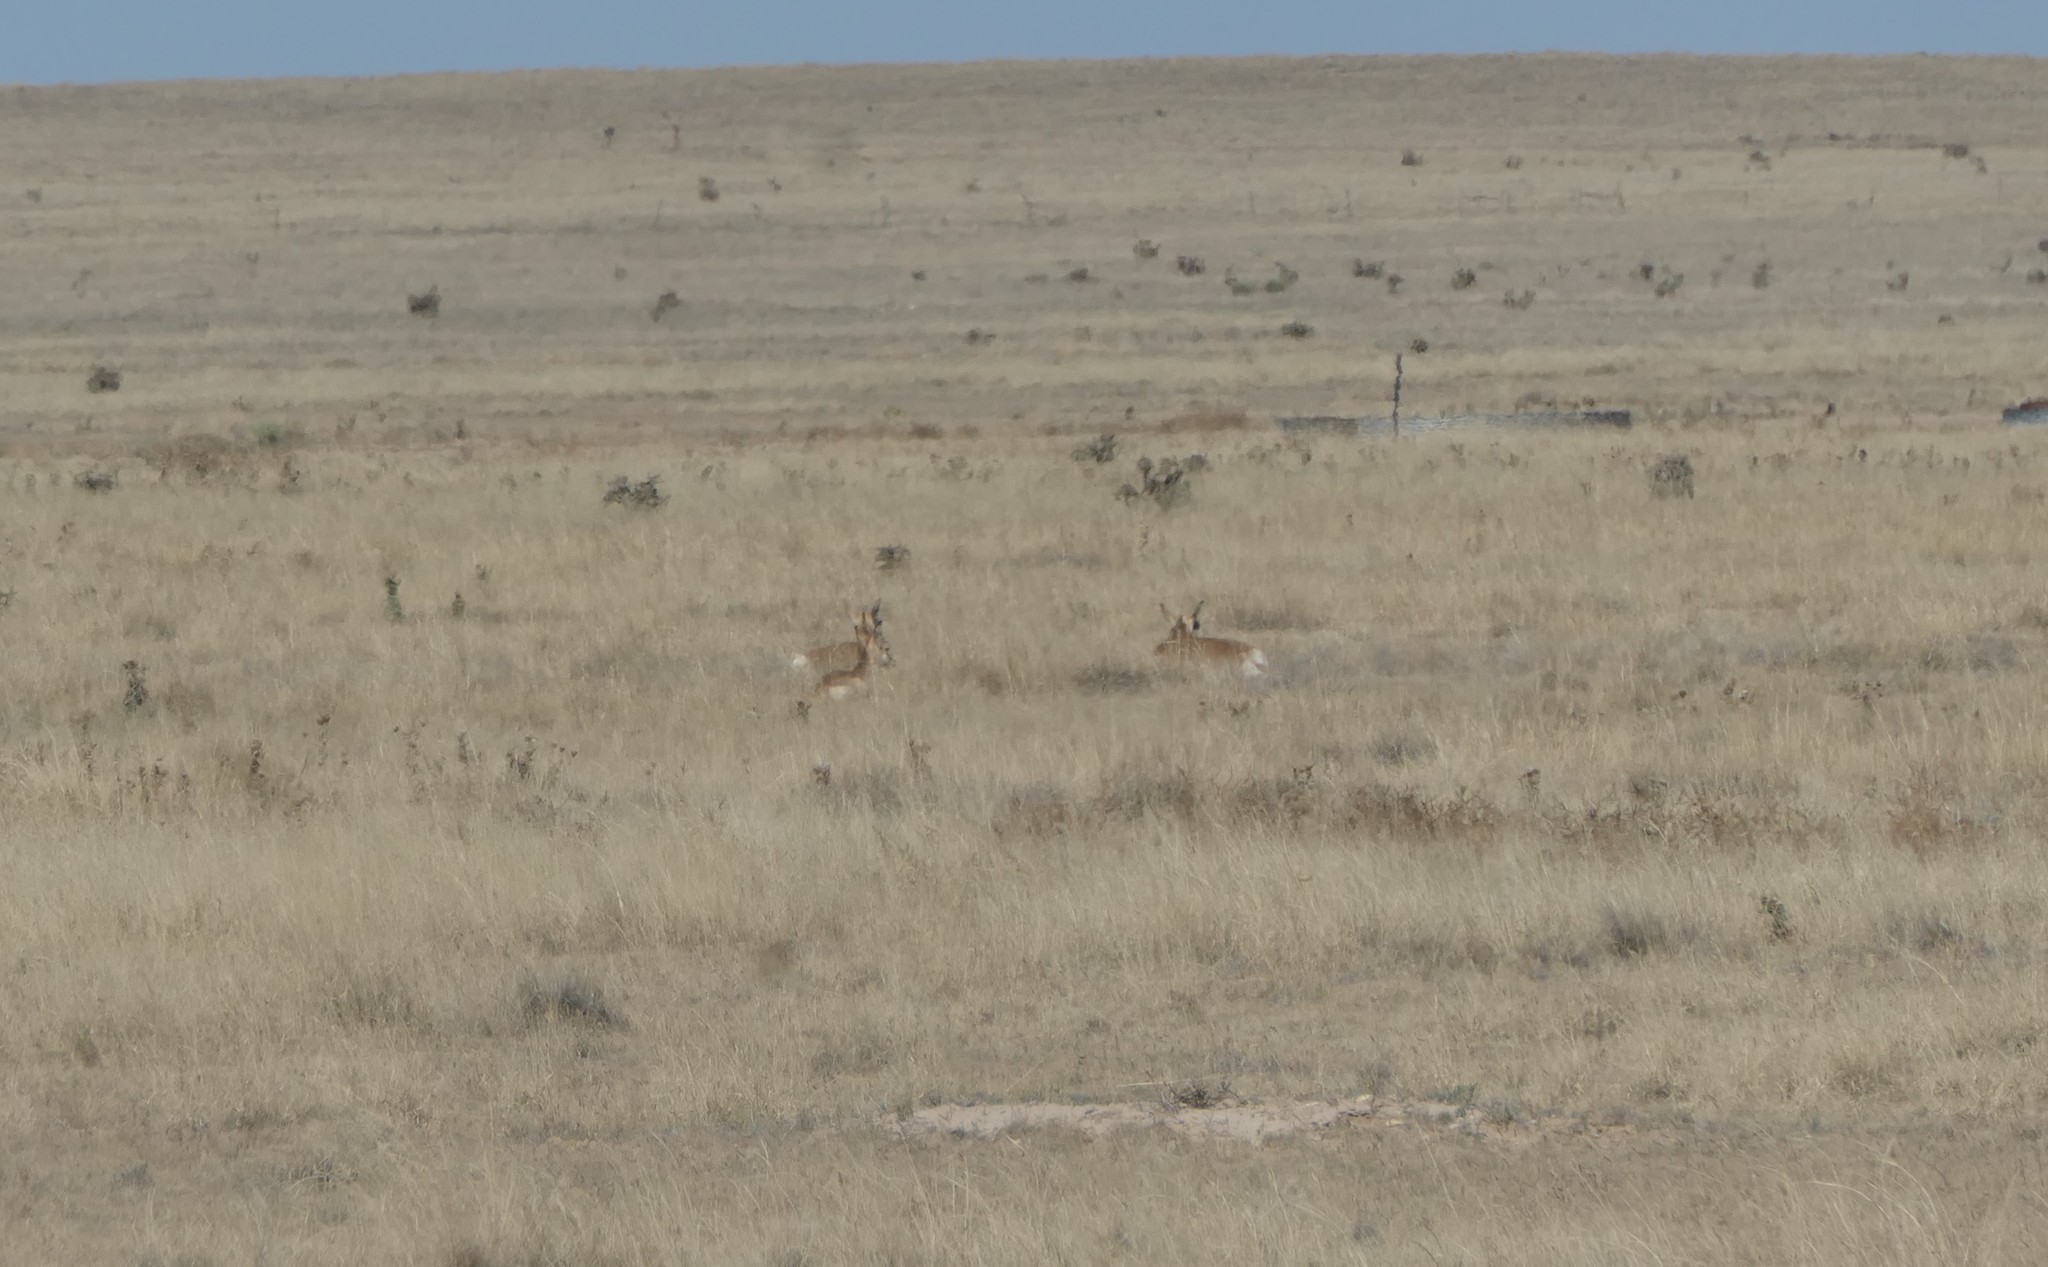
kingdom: Animalia
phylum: Chordata
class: Mammalia
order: Artiodactyla
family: Antilocapridae
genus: Antilocapra
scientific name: Antilocapra americana
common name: Pronghorn
